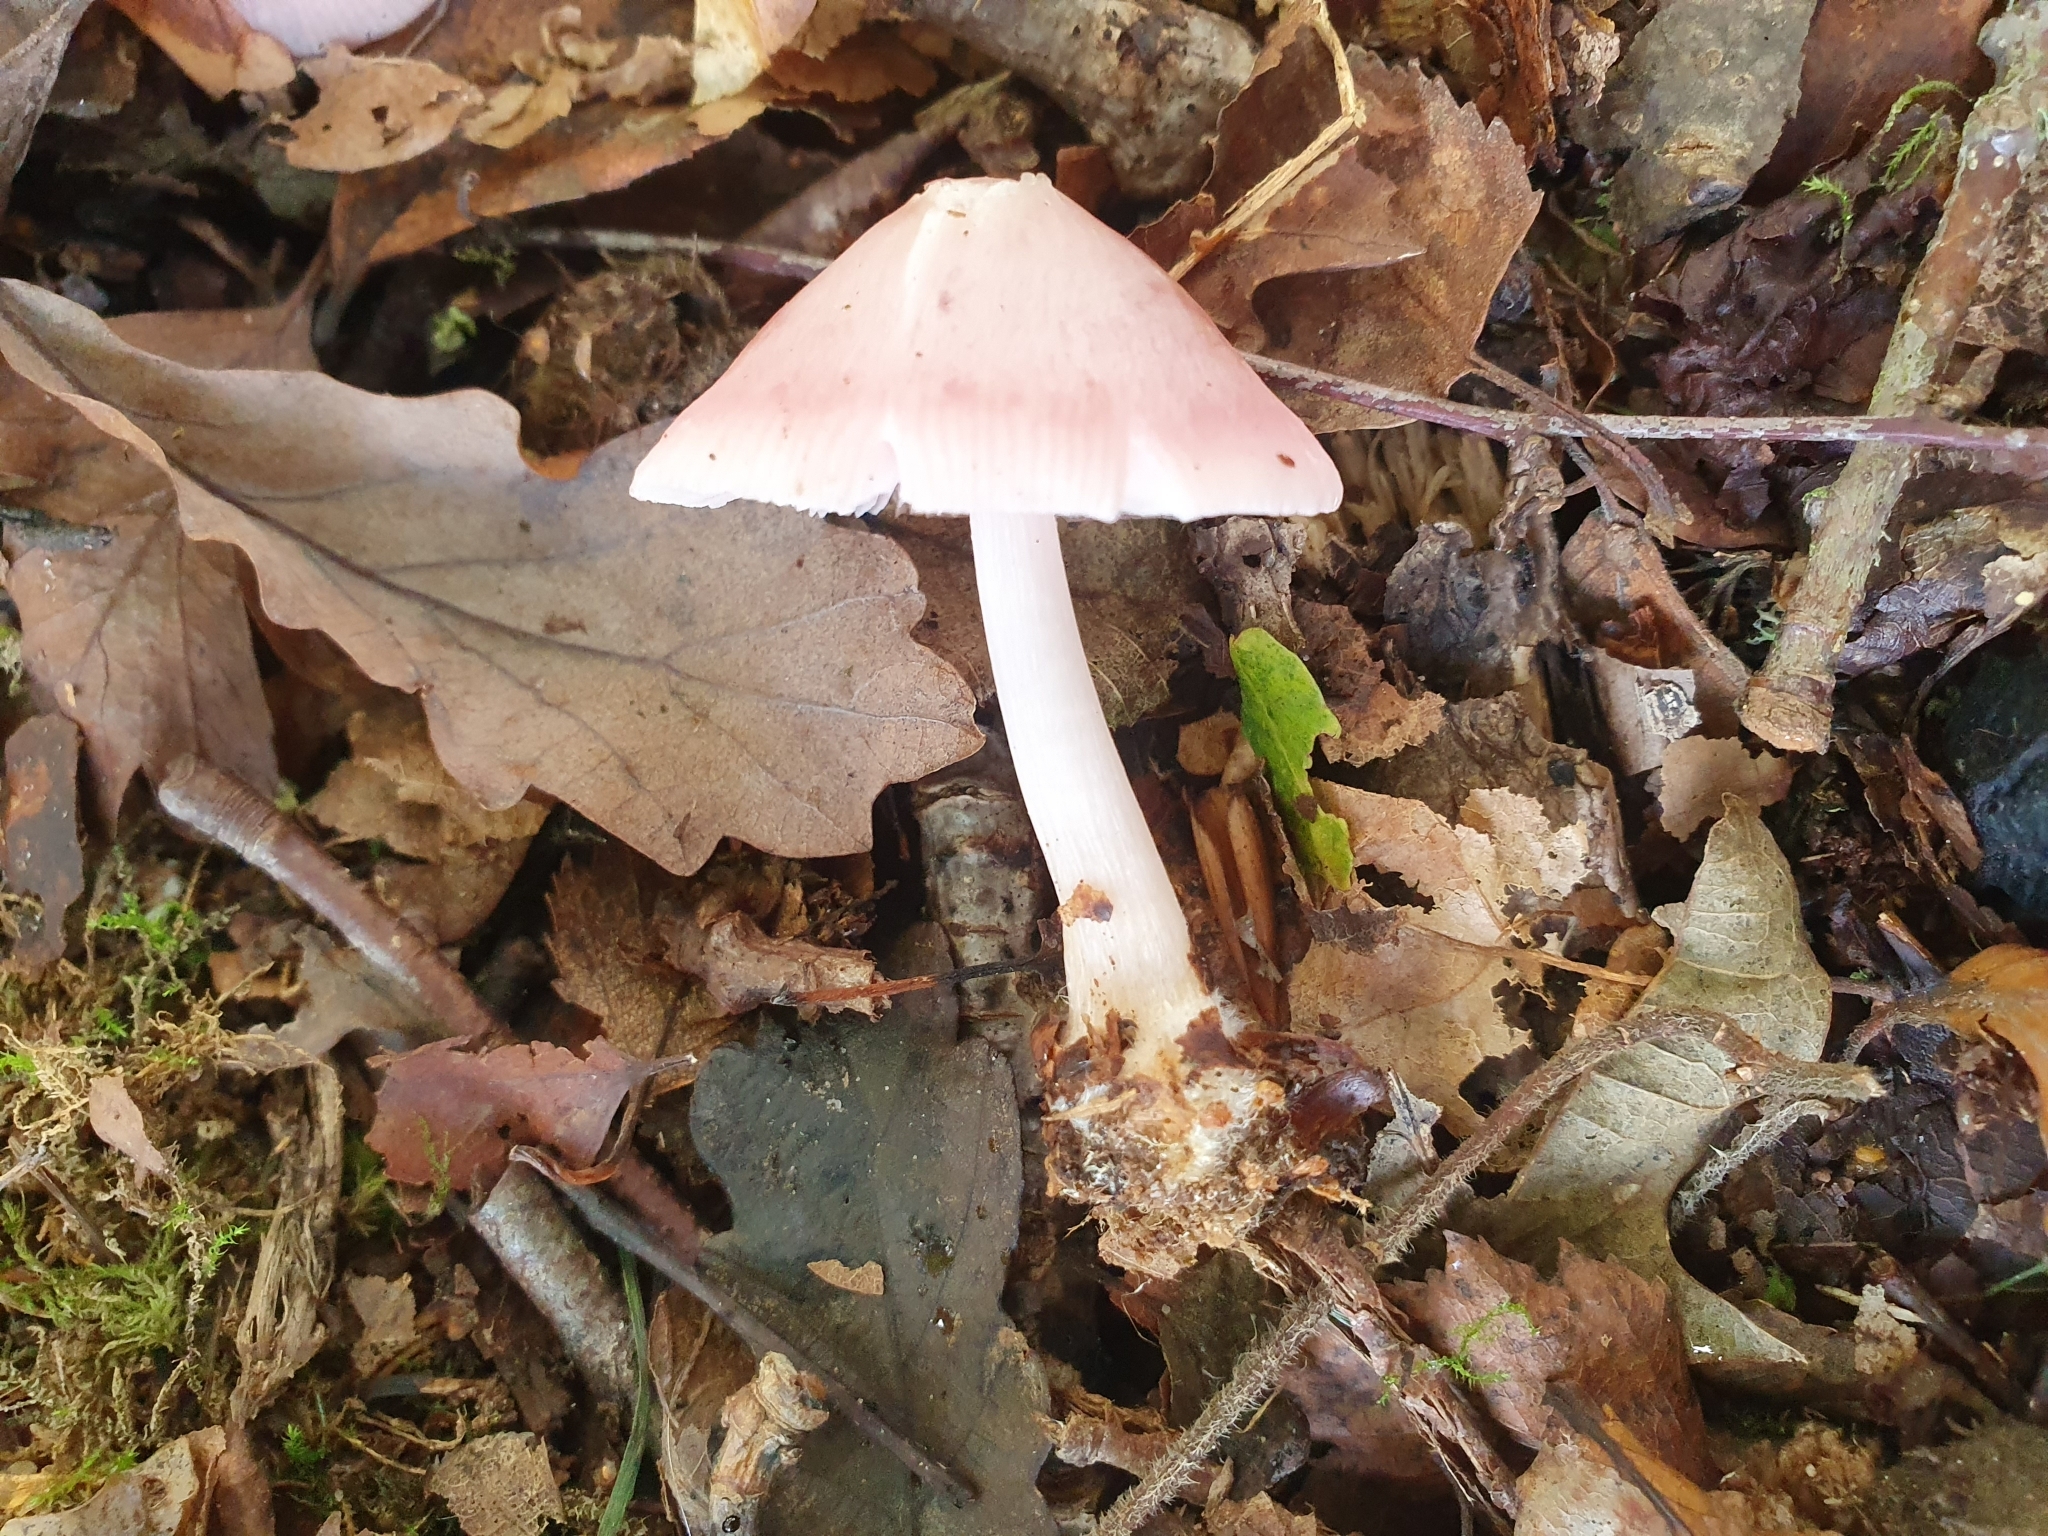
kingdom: Fungi
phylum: Basidiomycota
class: Agaricomycetes
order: Agaricales
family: Mycenaceae
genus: Mycena
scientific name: Mycena rosea
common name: Rosy bonnet
